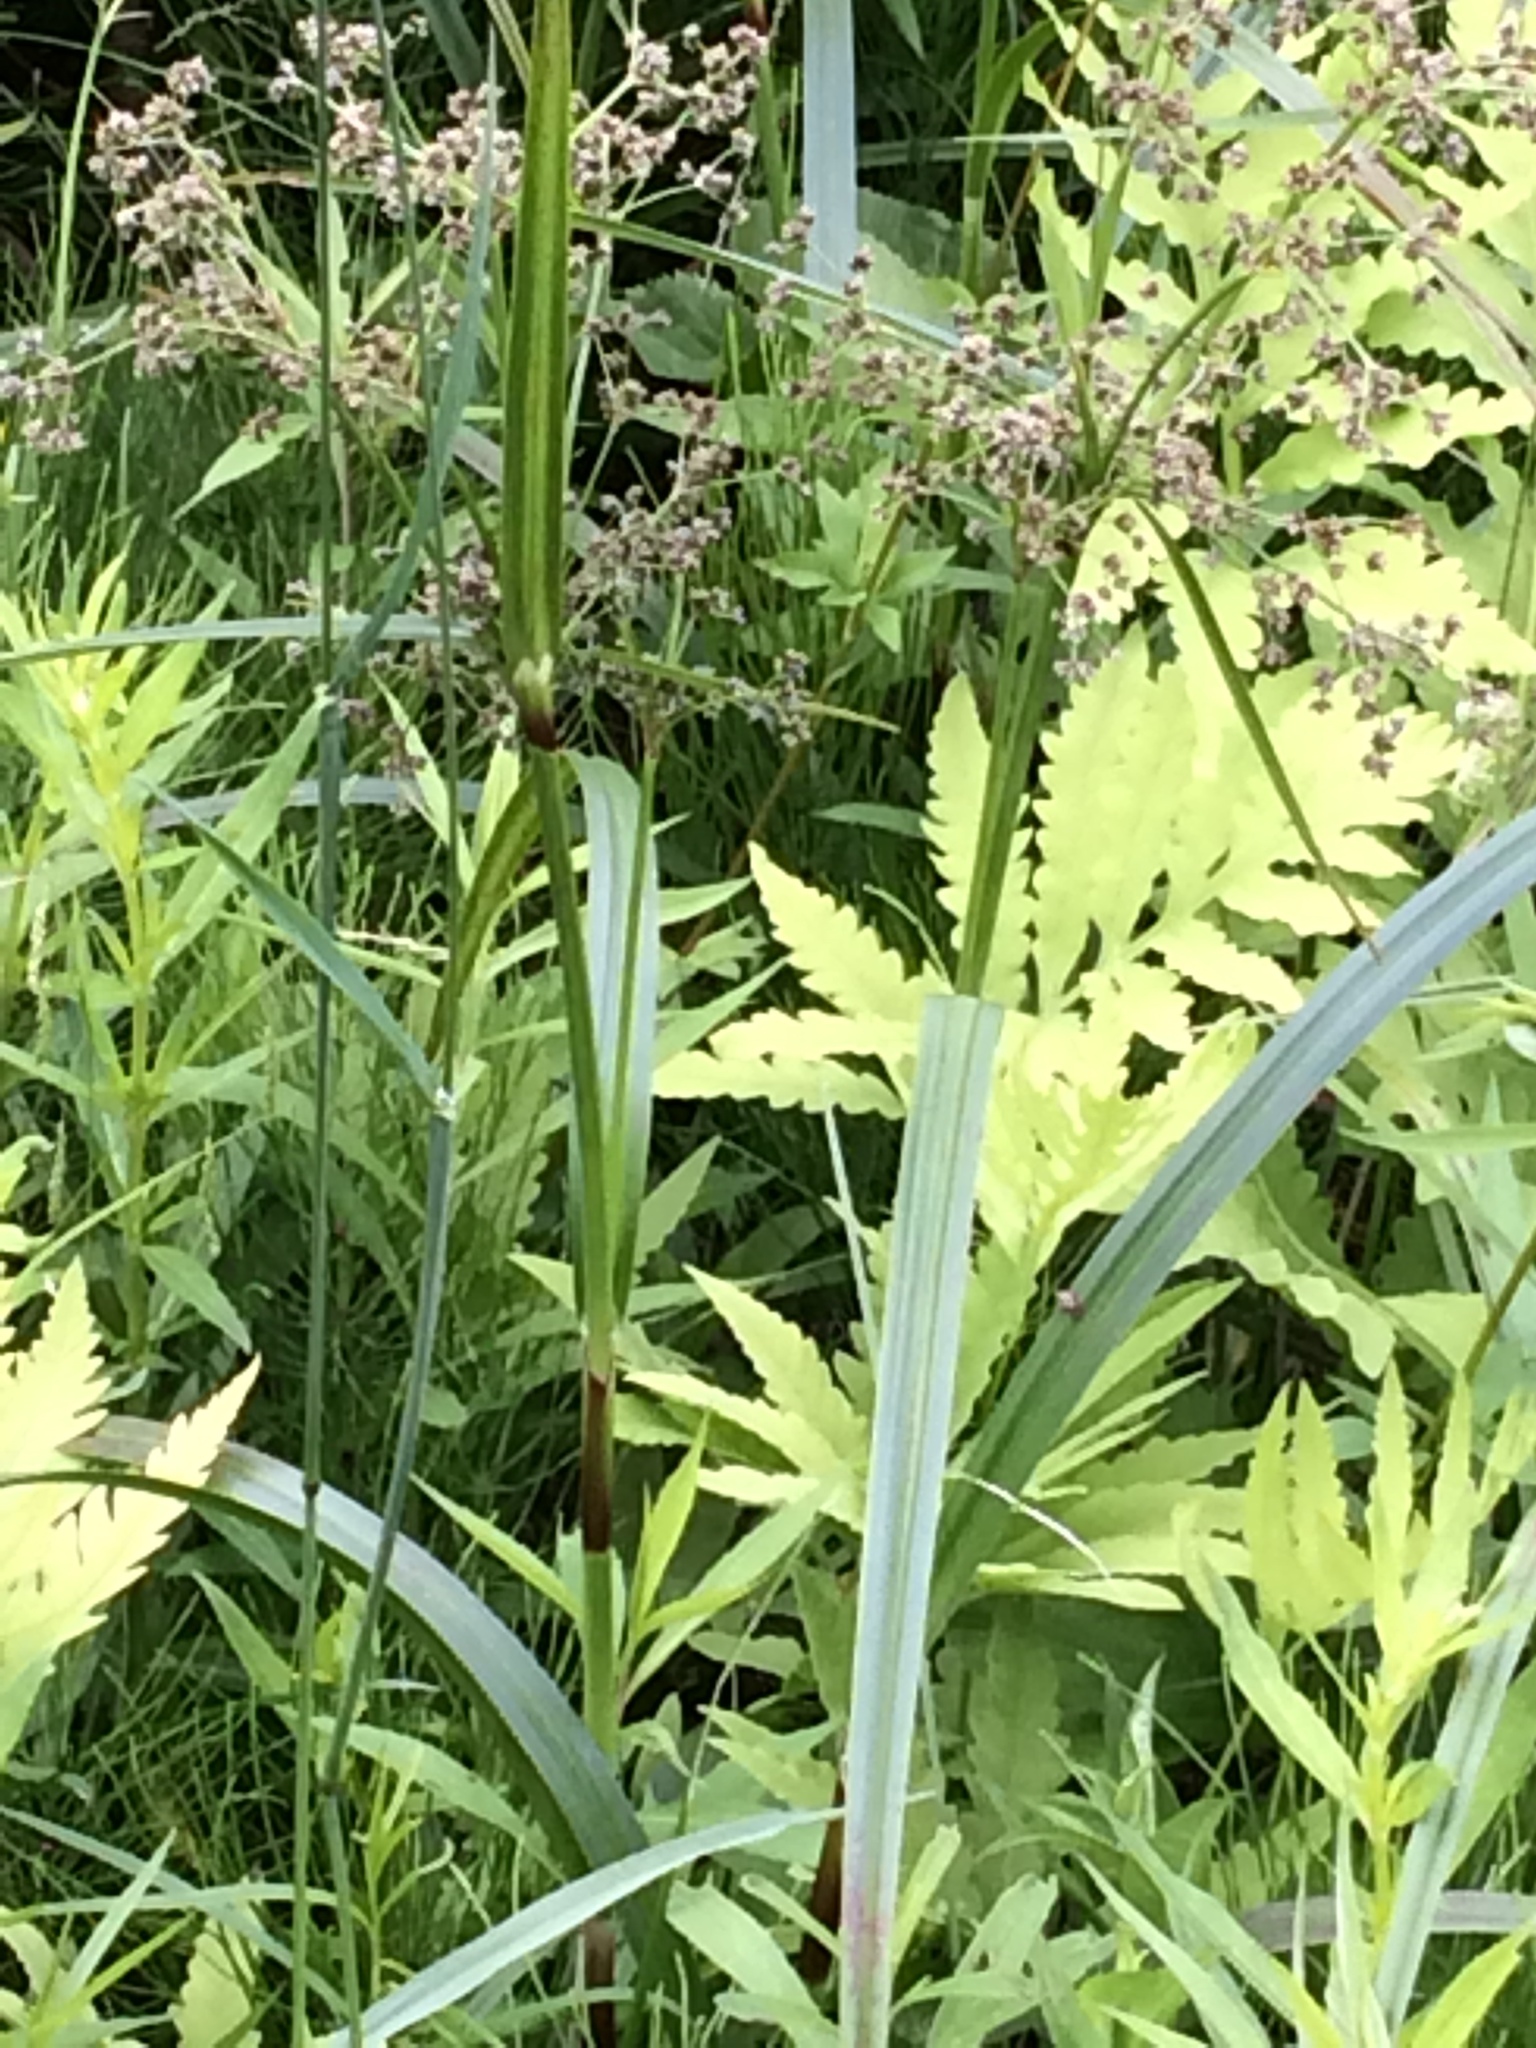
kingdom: Plantae
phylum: Tracheophyta
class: Liliopsida
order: Poales
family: Cyperaceae
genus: Scirpus
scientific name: Scirpus microcarpus
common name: Panicled bulrush
